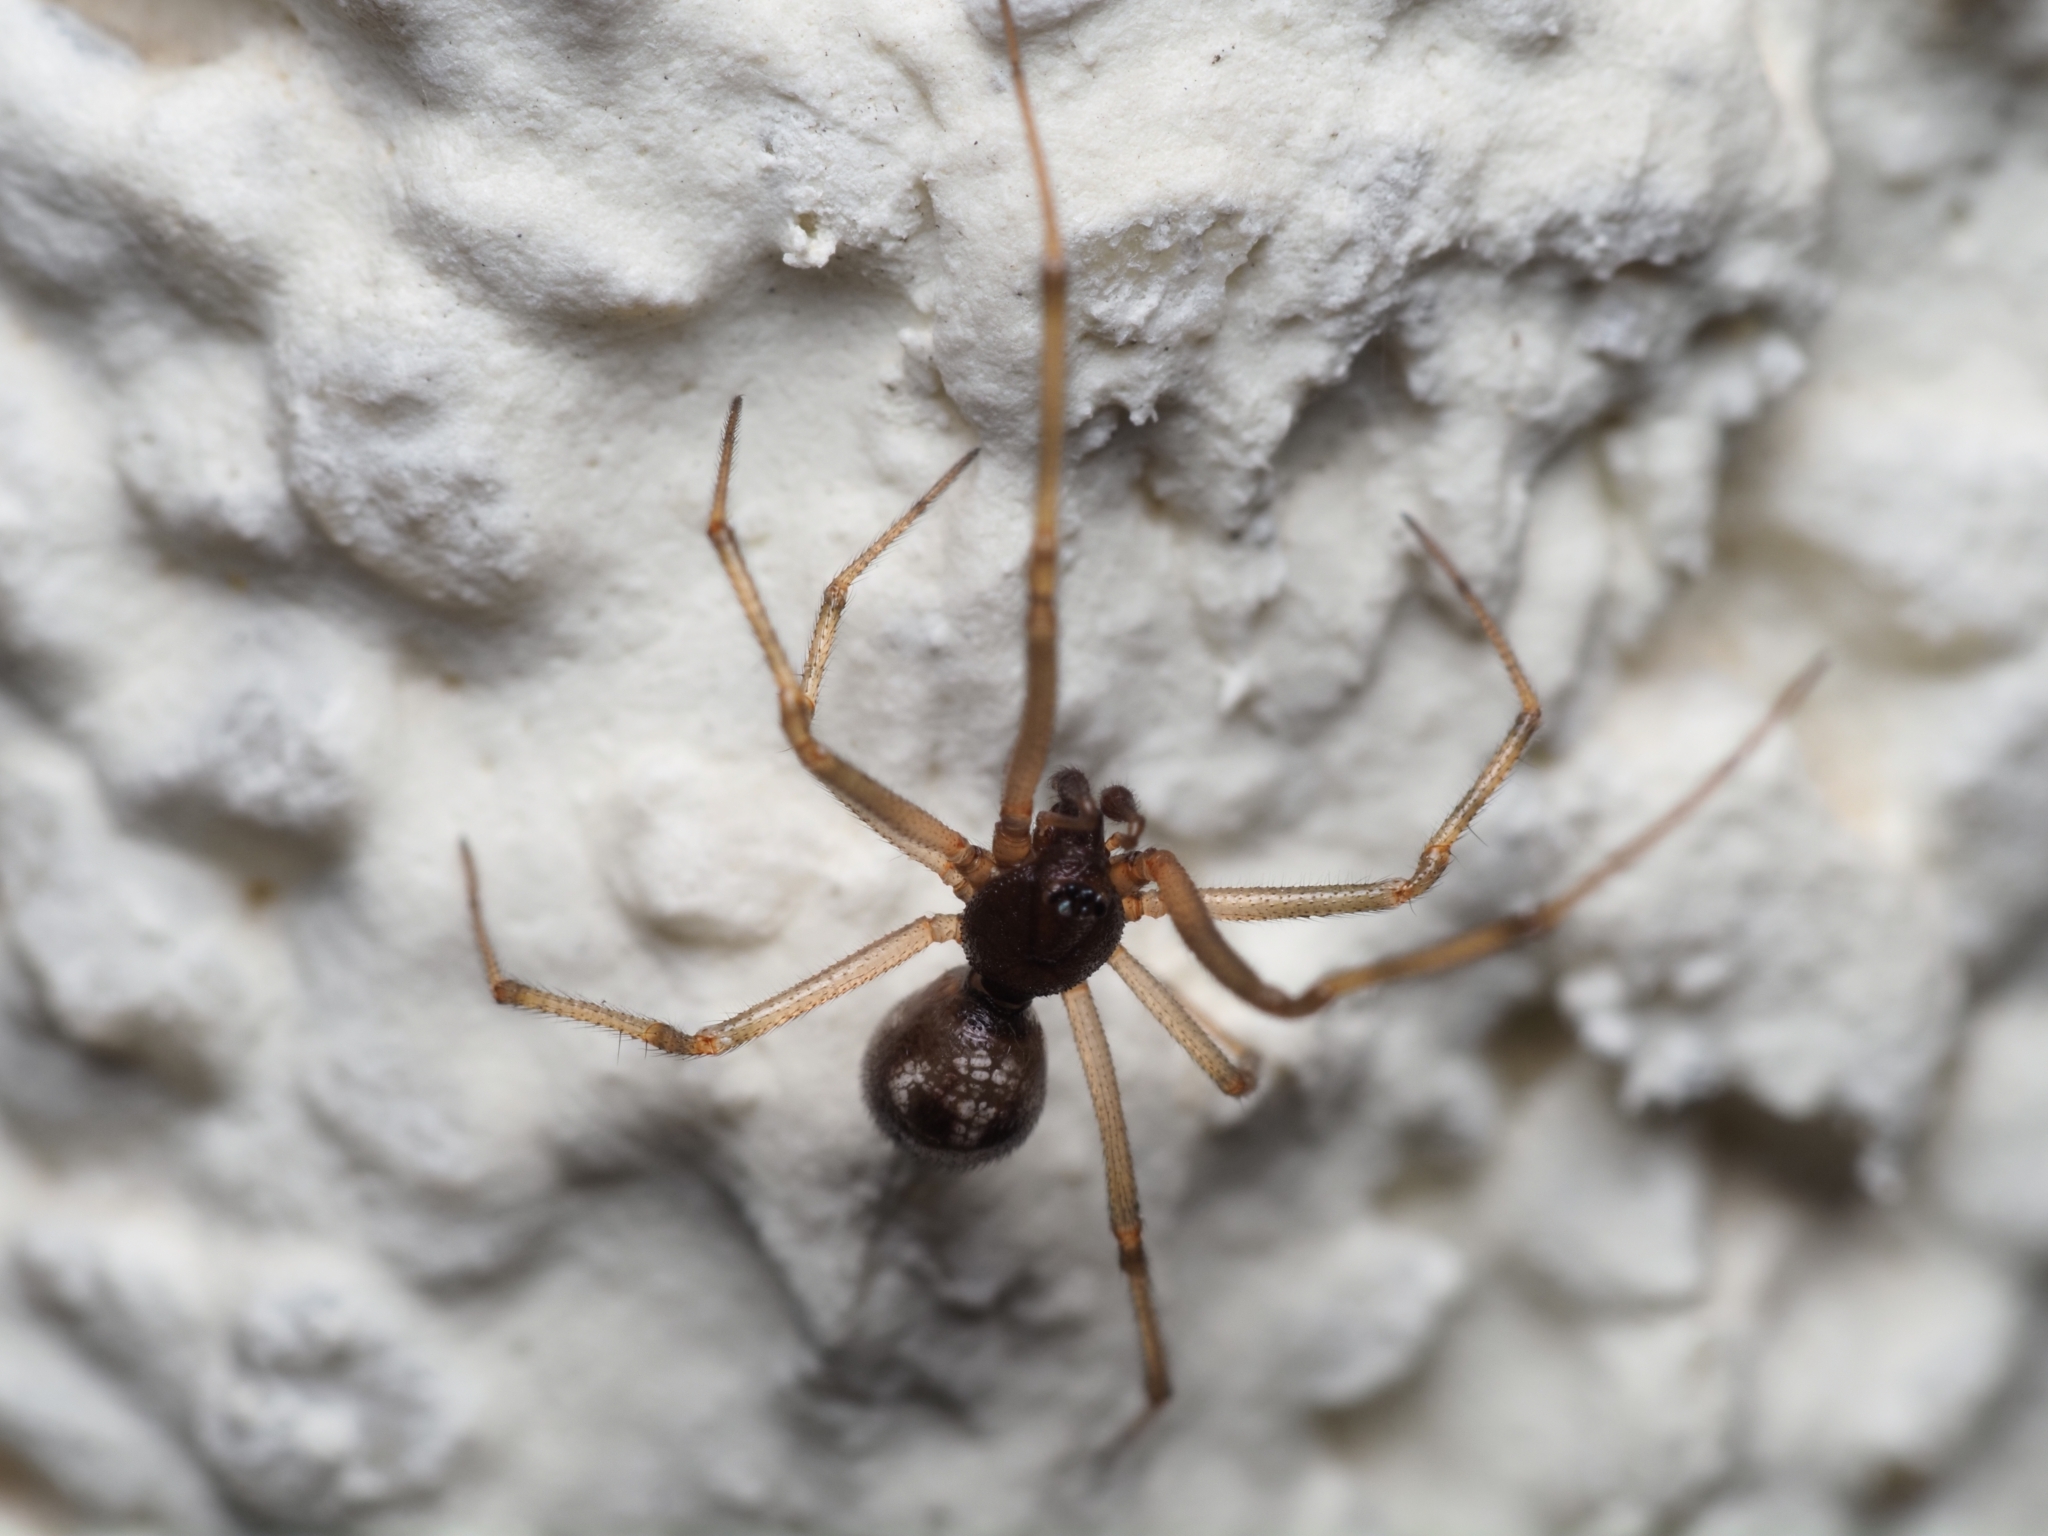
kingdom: Animalia
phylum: Arthropoda
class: Arachnida
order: Araneae
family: Theridiidae
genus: Steatoda
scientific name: Steatoda triangulosa
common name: Triangulate bud spider
